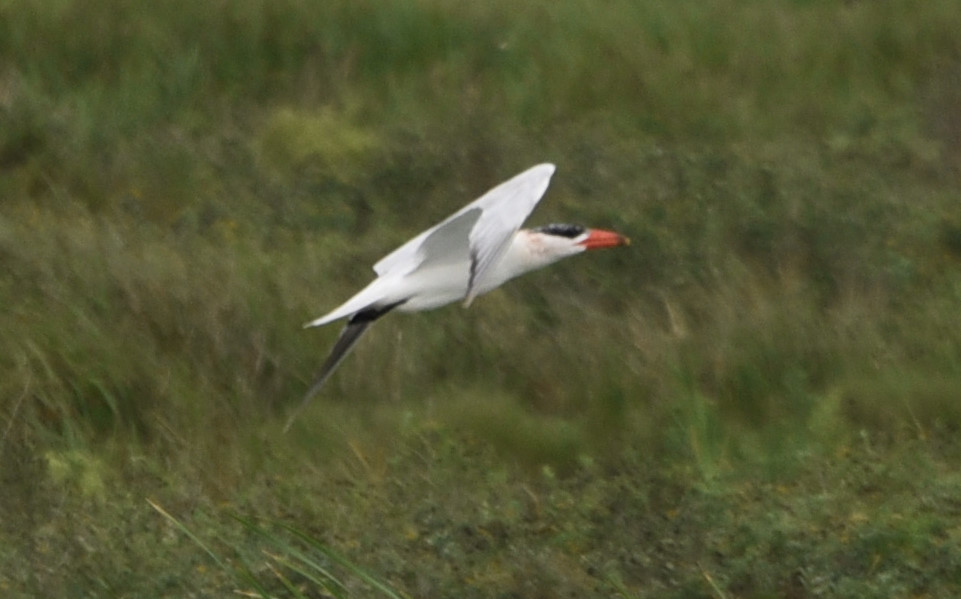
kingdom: Animalia
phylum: Chordata
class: Aves
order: Charadriiformes
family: Laridae
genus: Hydroprogne
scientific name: Hydroprogne caspia
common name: Caspian tern
